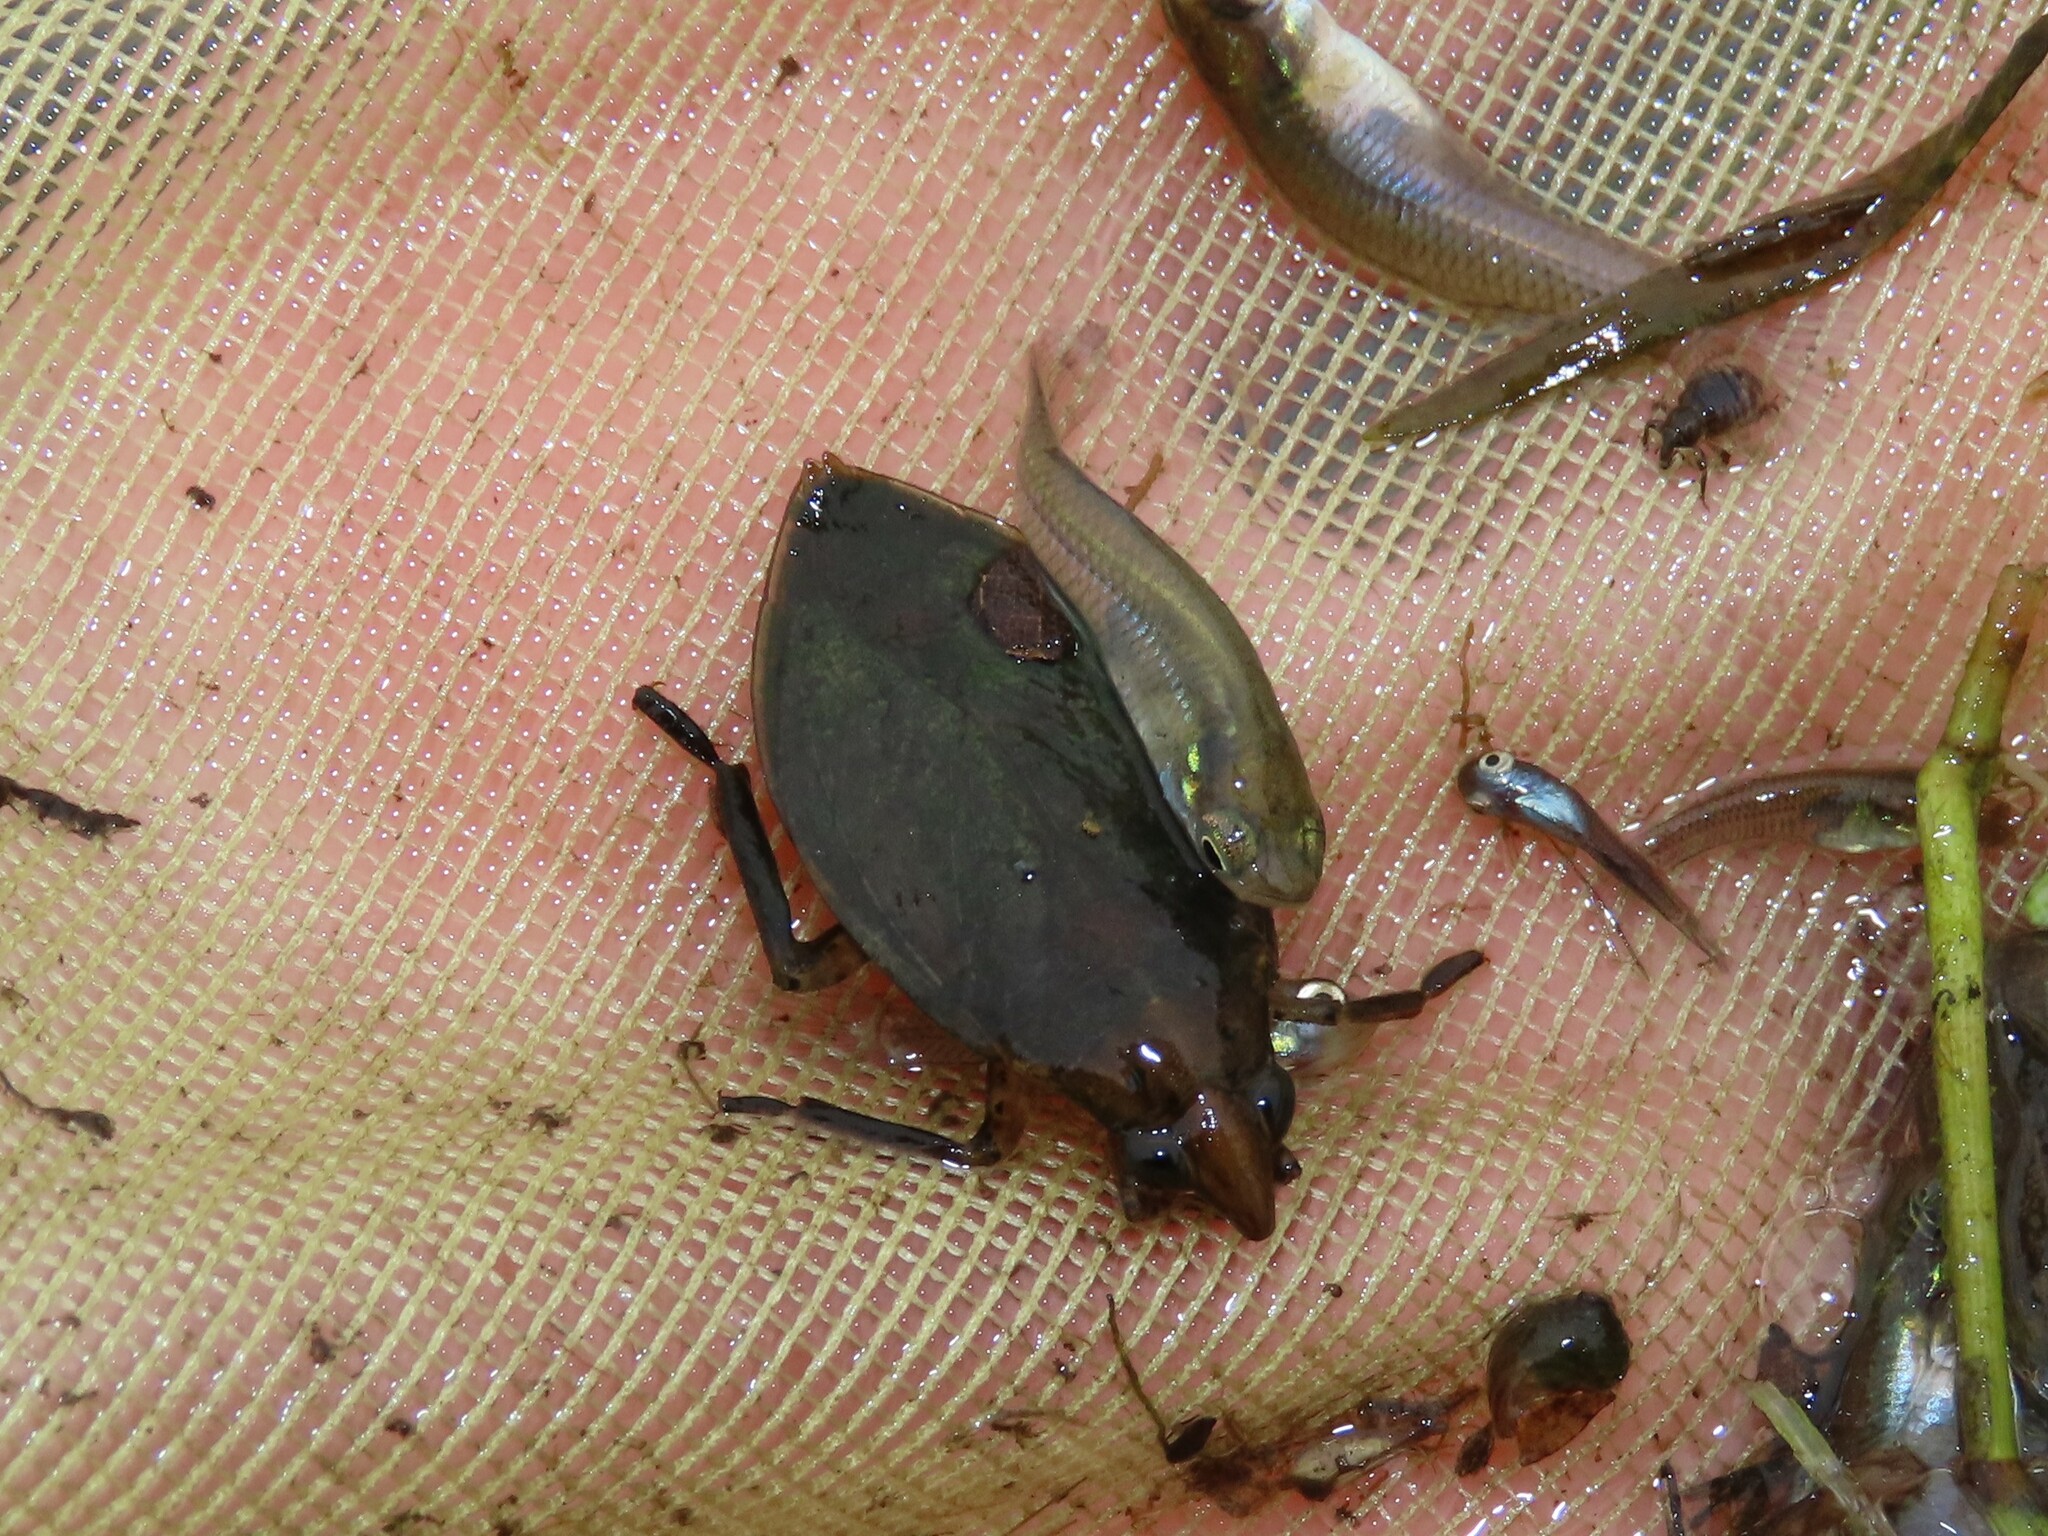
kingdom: Animalia
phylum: Arthropoda
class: Insecta
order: Hemiptera
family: Belostomatidae
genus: Belostoma
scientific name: Belostoma lutarium
